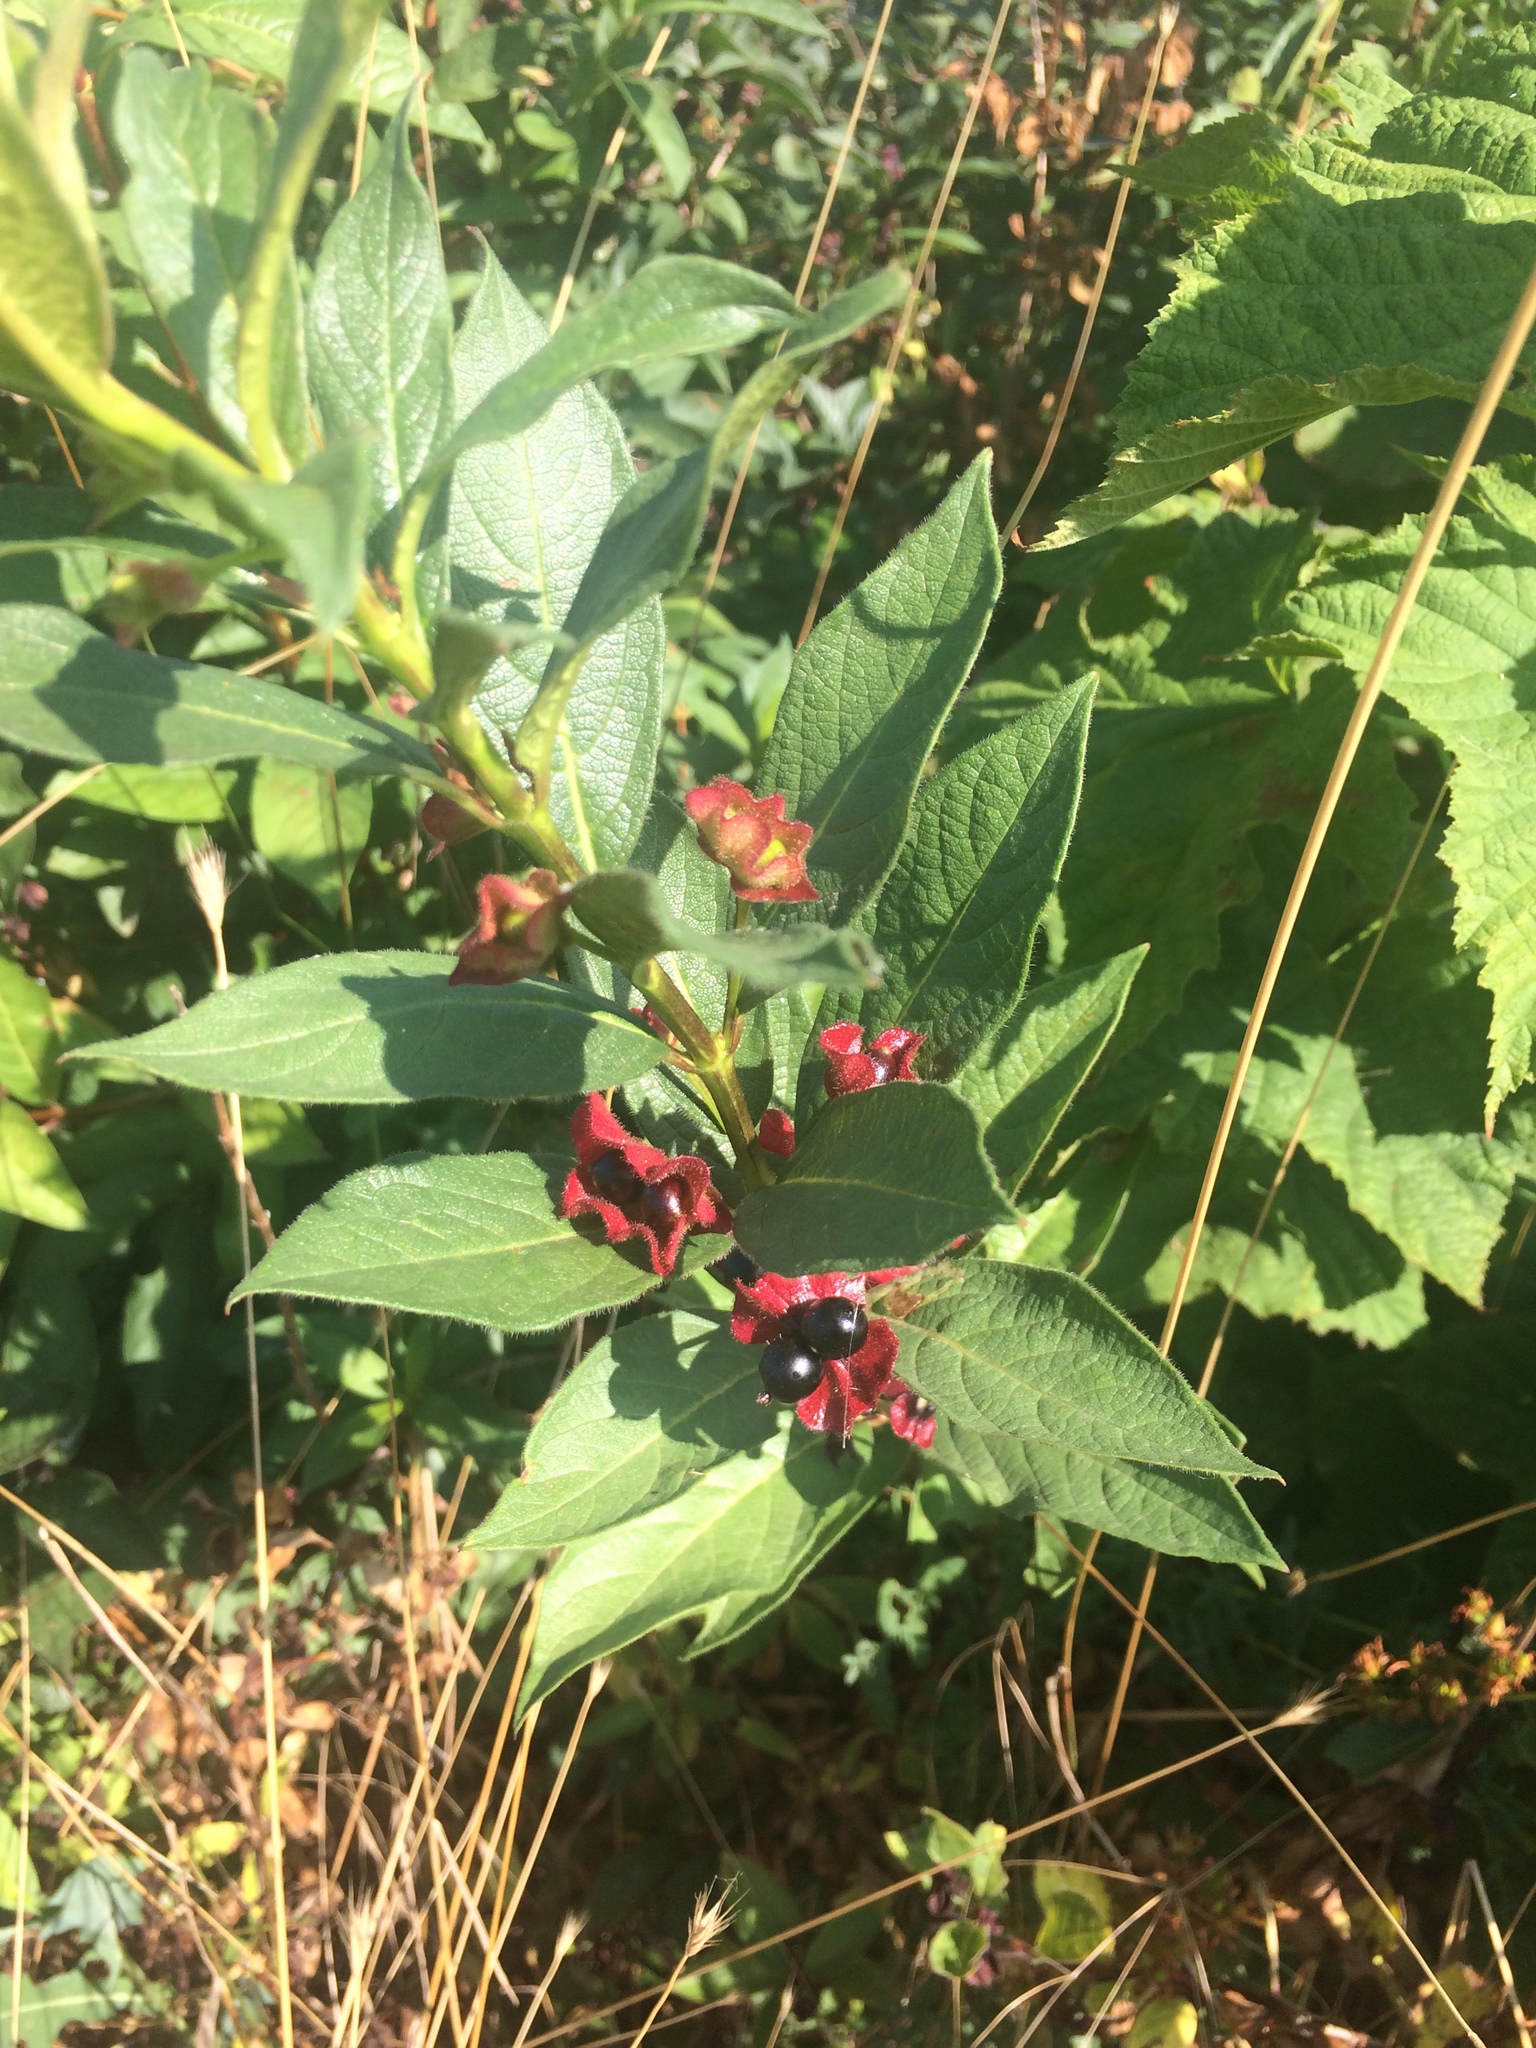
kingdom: Plantae
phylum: Tracheophyta
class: Magnoliopsida
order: Dipsacales
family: Caprifoliaceae
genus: Lonicera
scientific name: Lonicera involucrata
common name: Californian honeysuckle
